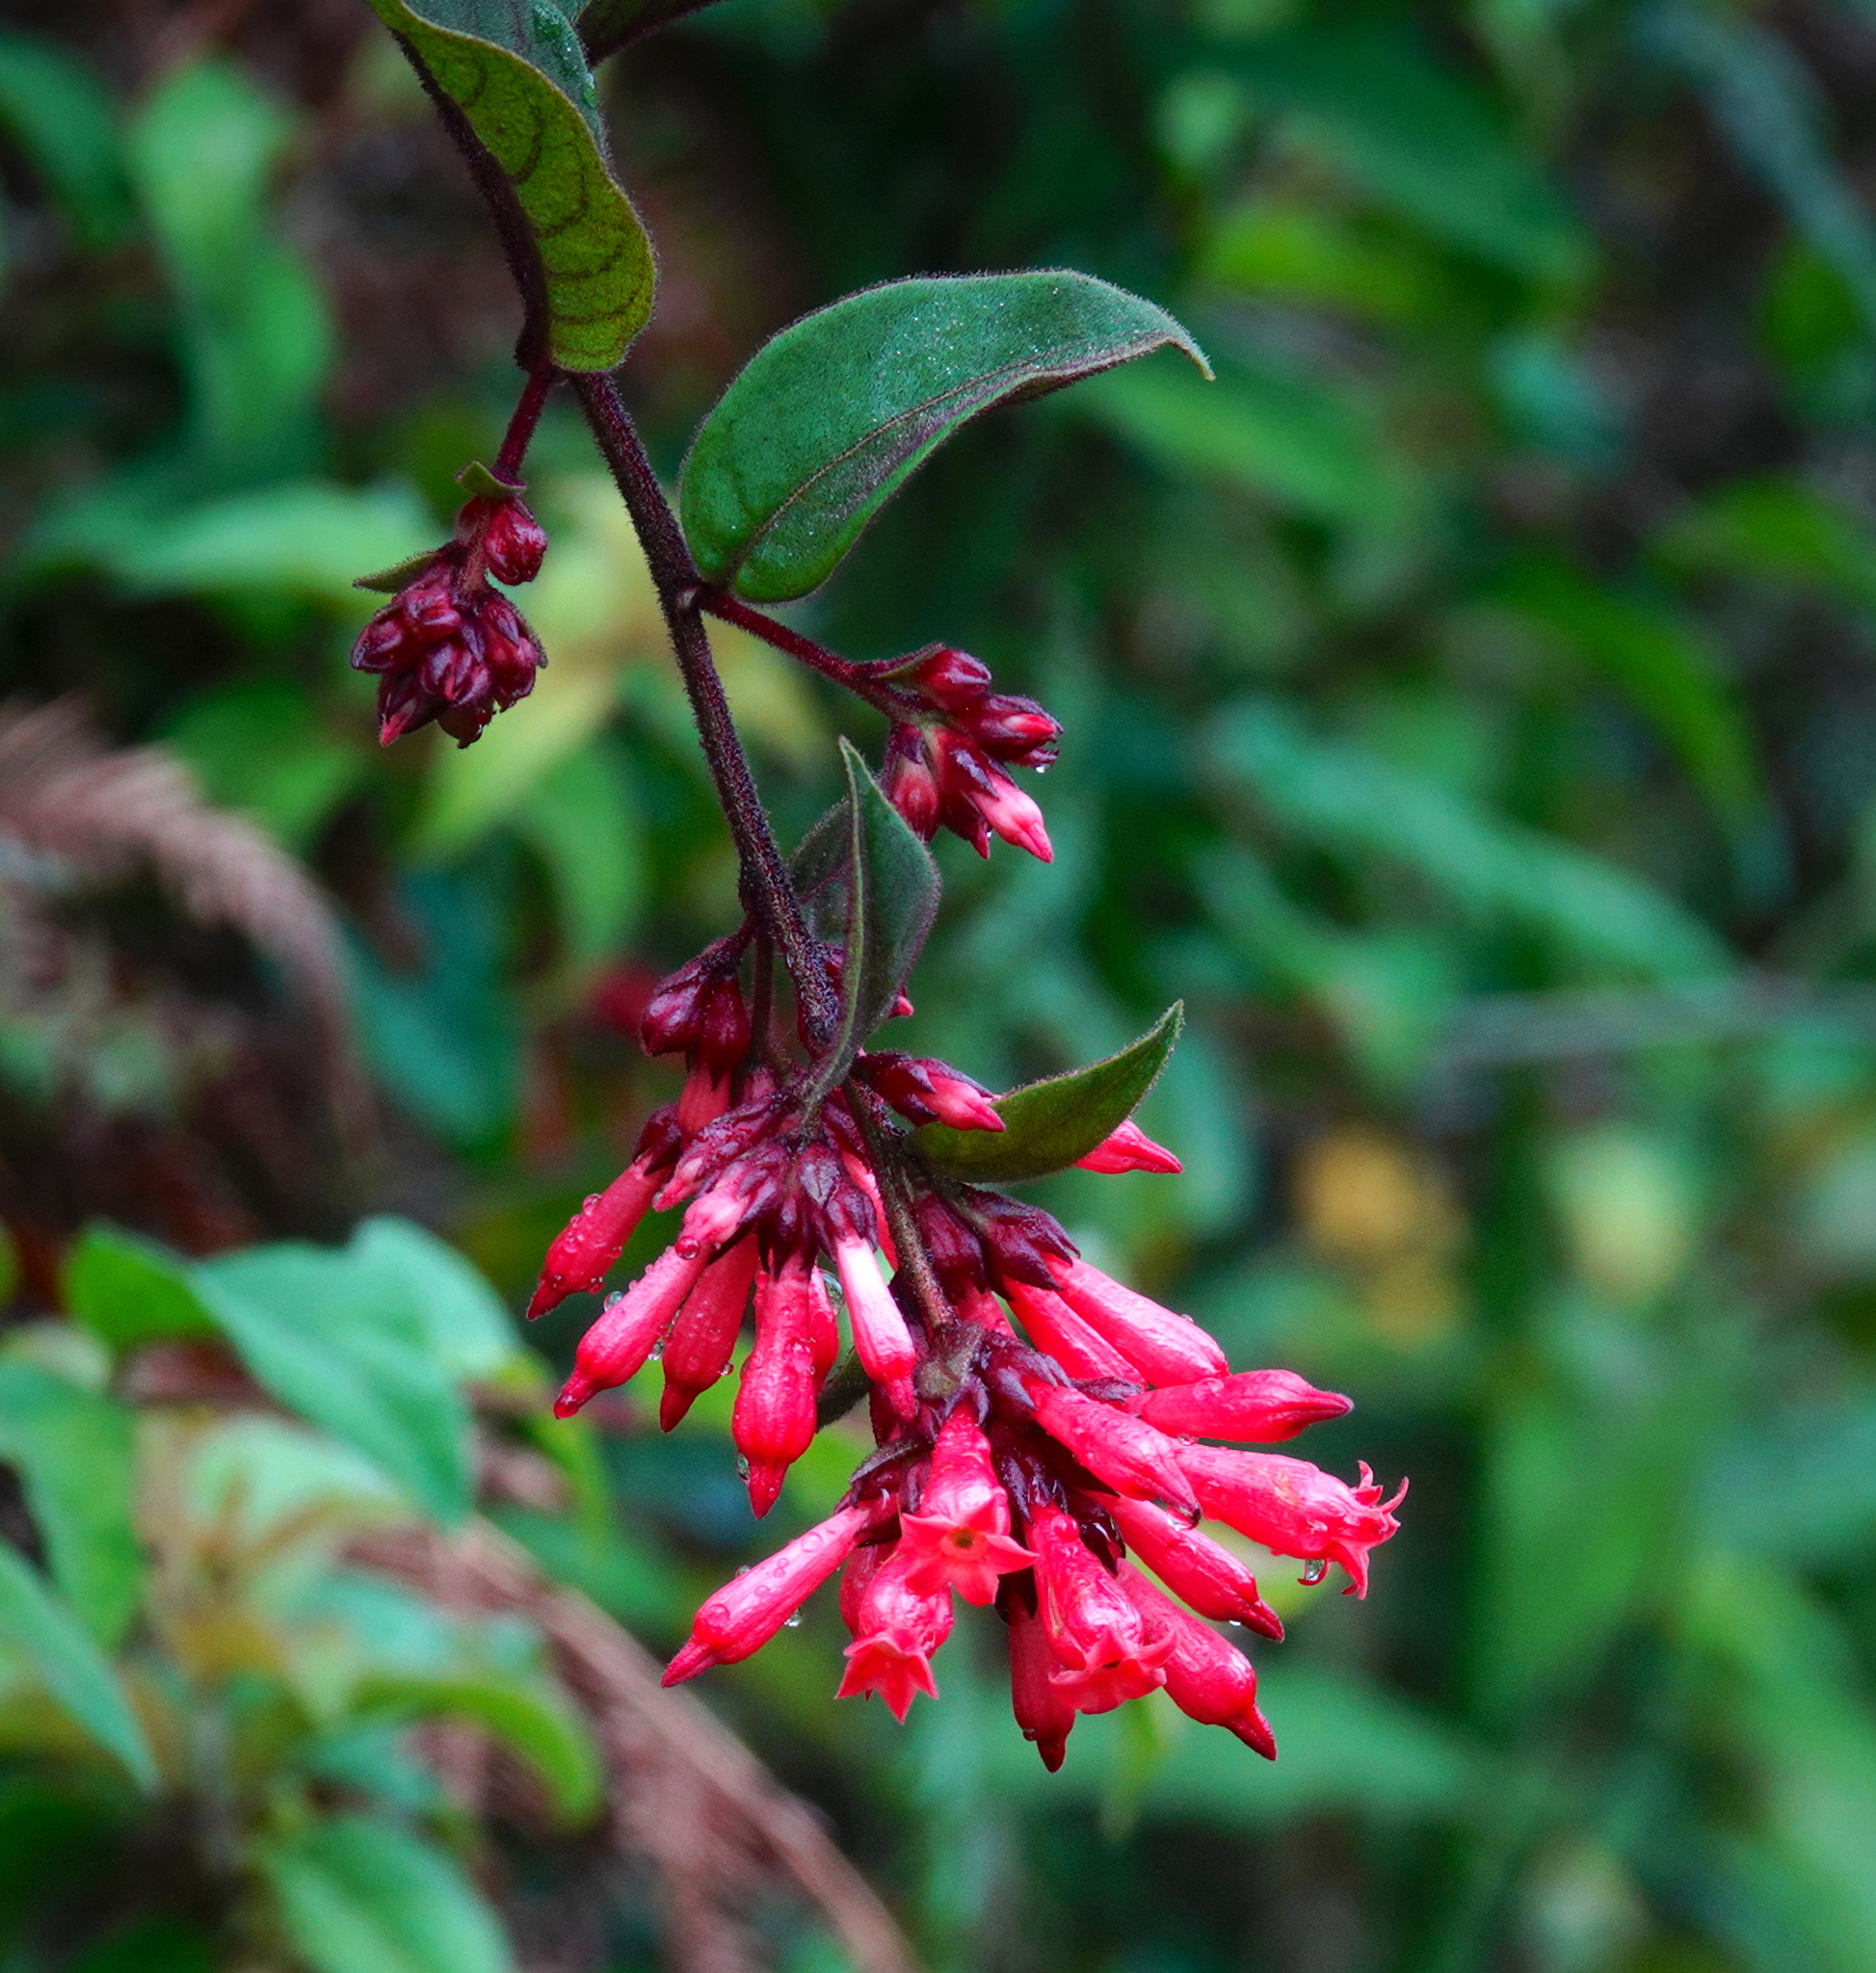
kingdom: Plantae
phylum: Tracheophyta
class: Magnoliopsida
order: Solanales
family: Solanaceae
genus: Cestrum
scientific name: Cestrum elegans
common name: Crimson cestrum
